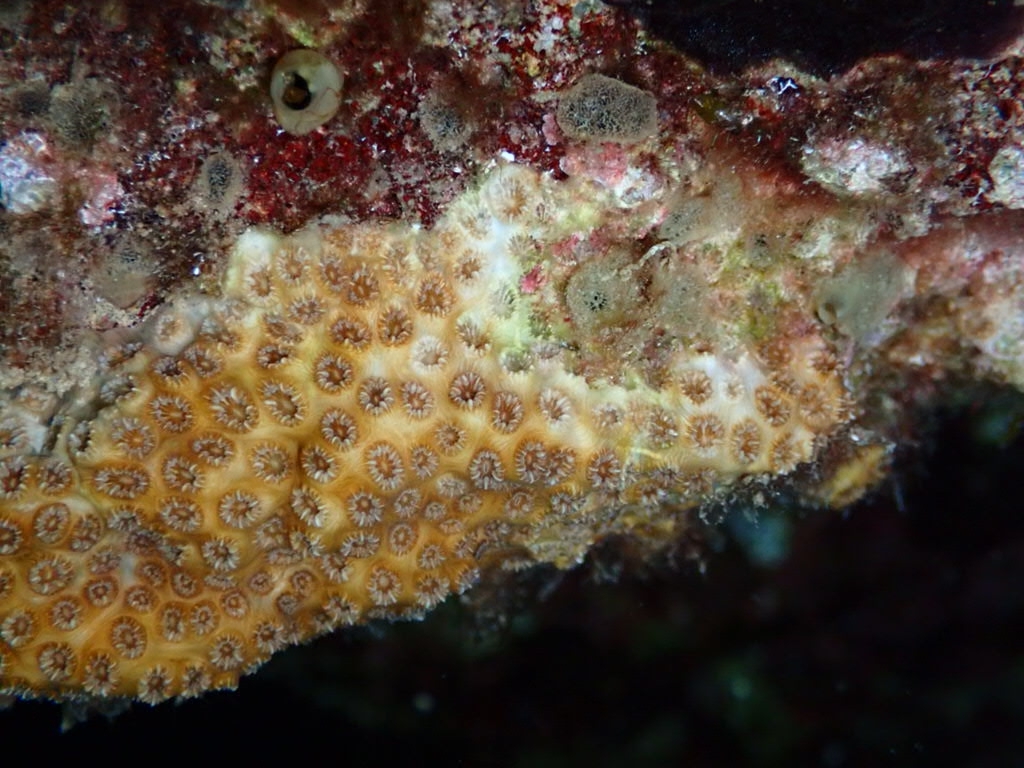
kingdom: Animalia
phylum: Cnidaria
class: Anthozoa
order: Scleractinia
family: Oculinidae
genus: Oculina
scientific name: Oculina patagonica
